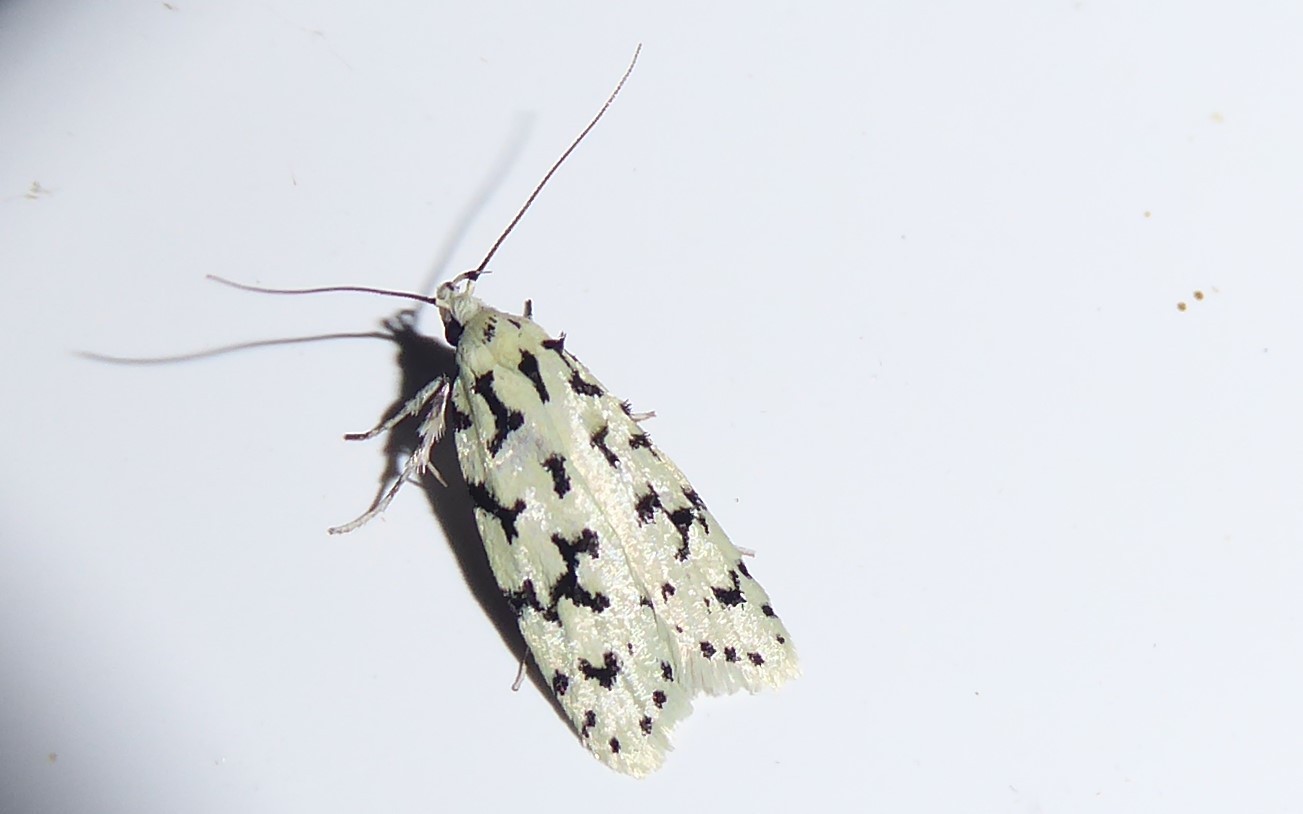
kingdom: Animalia
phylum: Arthropoda
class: Insecta
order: Lepidoptera
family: Oecophoridae
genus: Izatha
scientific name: Izatha huttoni
